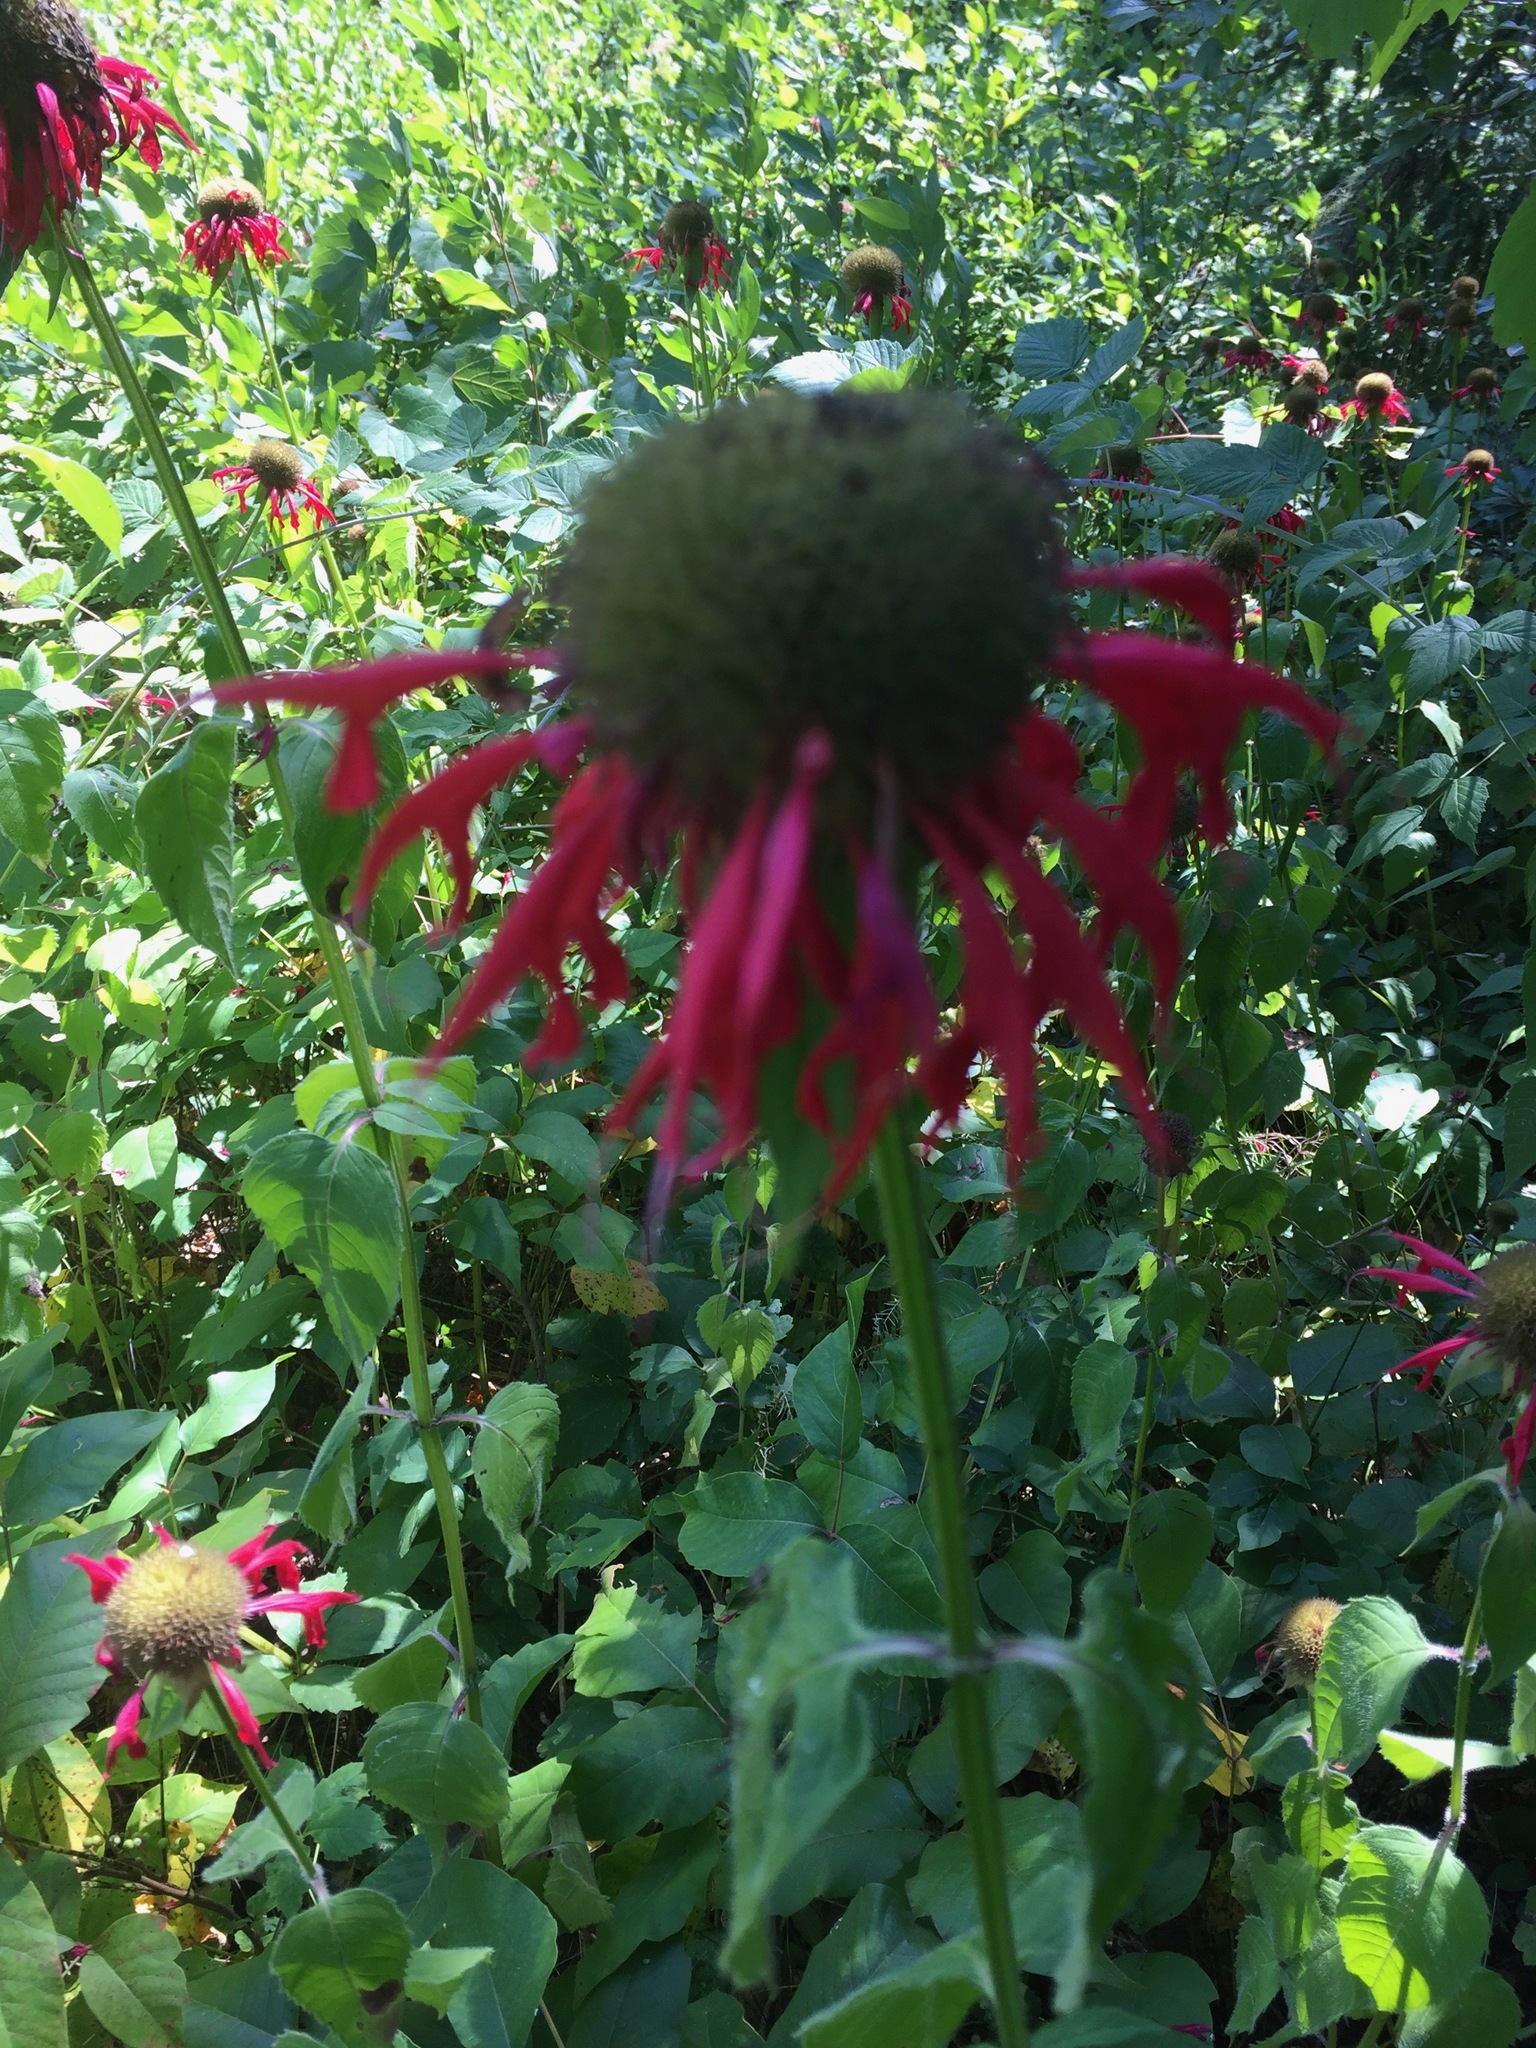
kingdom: Plantae
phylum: Tracheophyta
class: Magnoliopsida
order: Lamiales
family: Lamiaceae
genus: Monarda
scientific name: Monarda didyma
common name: Beebalm
